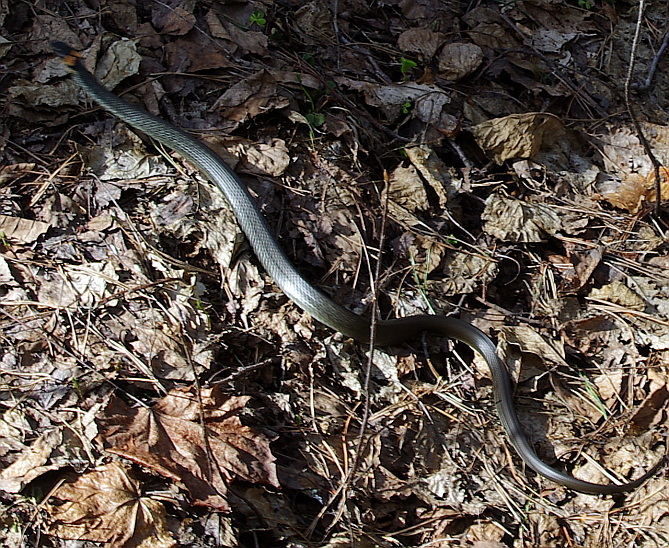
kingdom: Animalia
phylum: Chordata
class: Squamata
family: Colubridae
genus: Natrix
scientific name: Natrix natrix
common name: Grass snake
